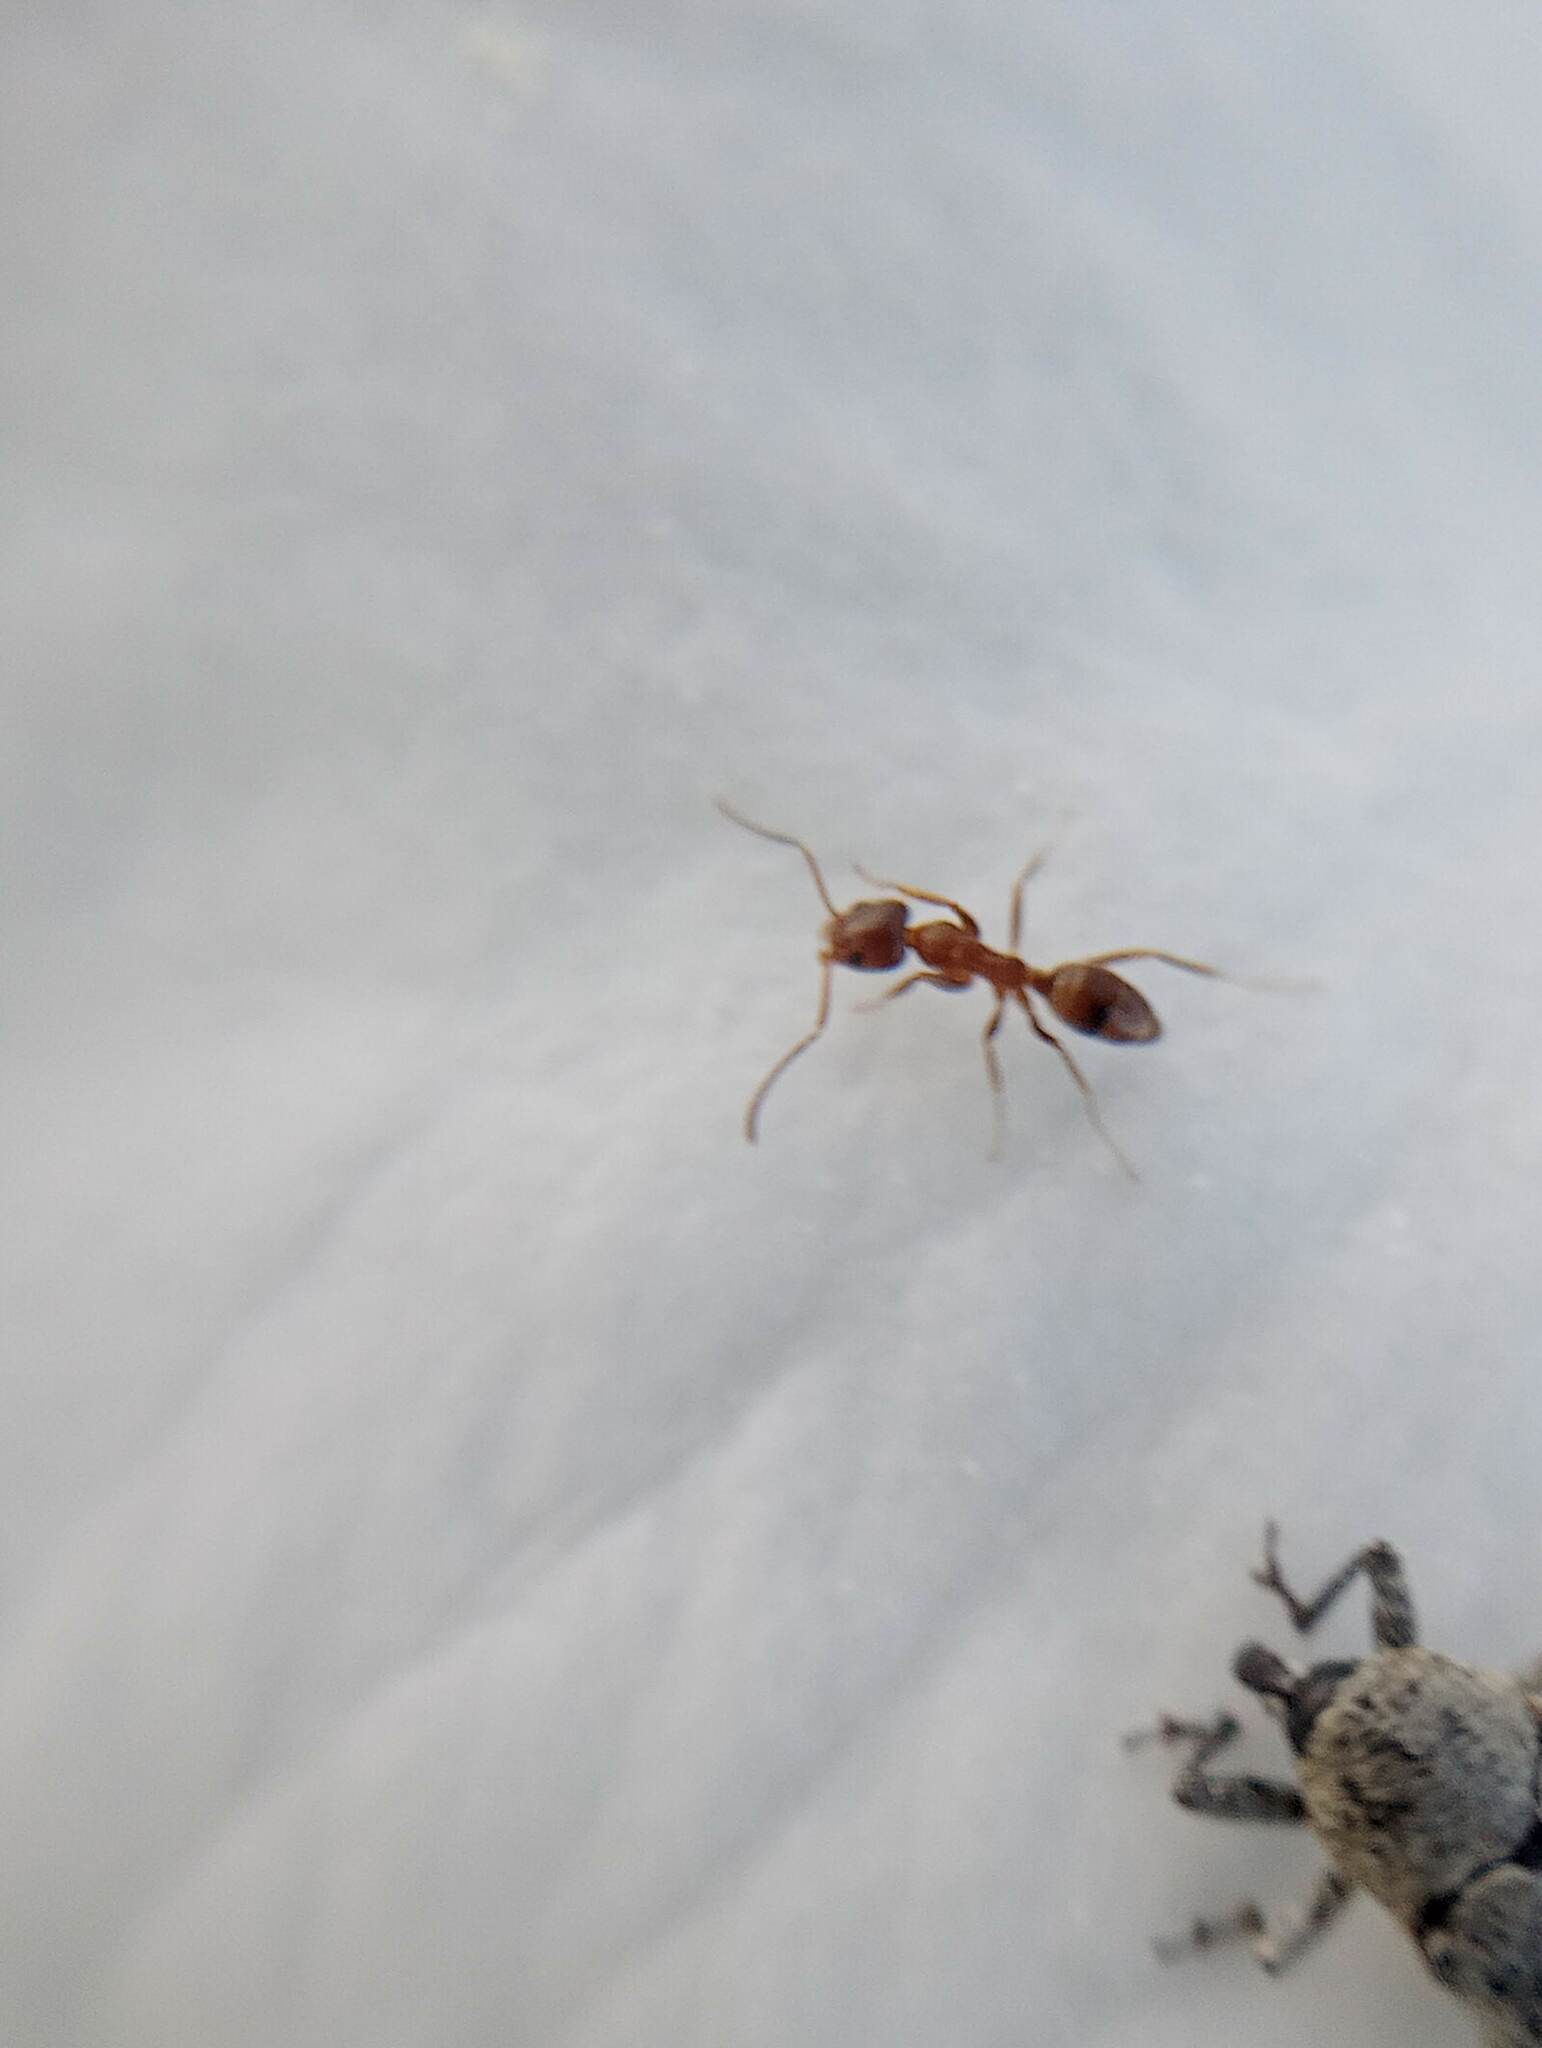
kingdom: Animalia
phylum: Arthropoda
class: Insecta
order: Hymenoptera
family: Formicidae
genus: Linepithema
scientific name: Linepithema humile
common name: Argentine ant
